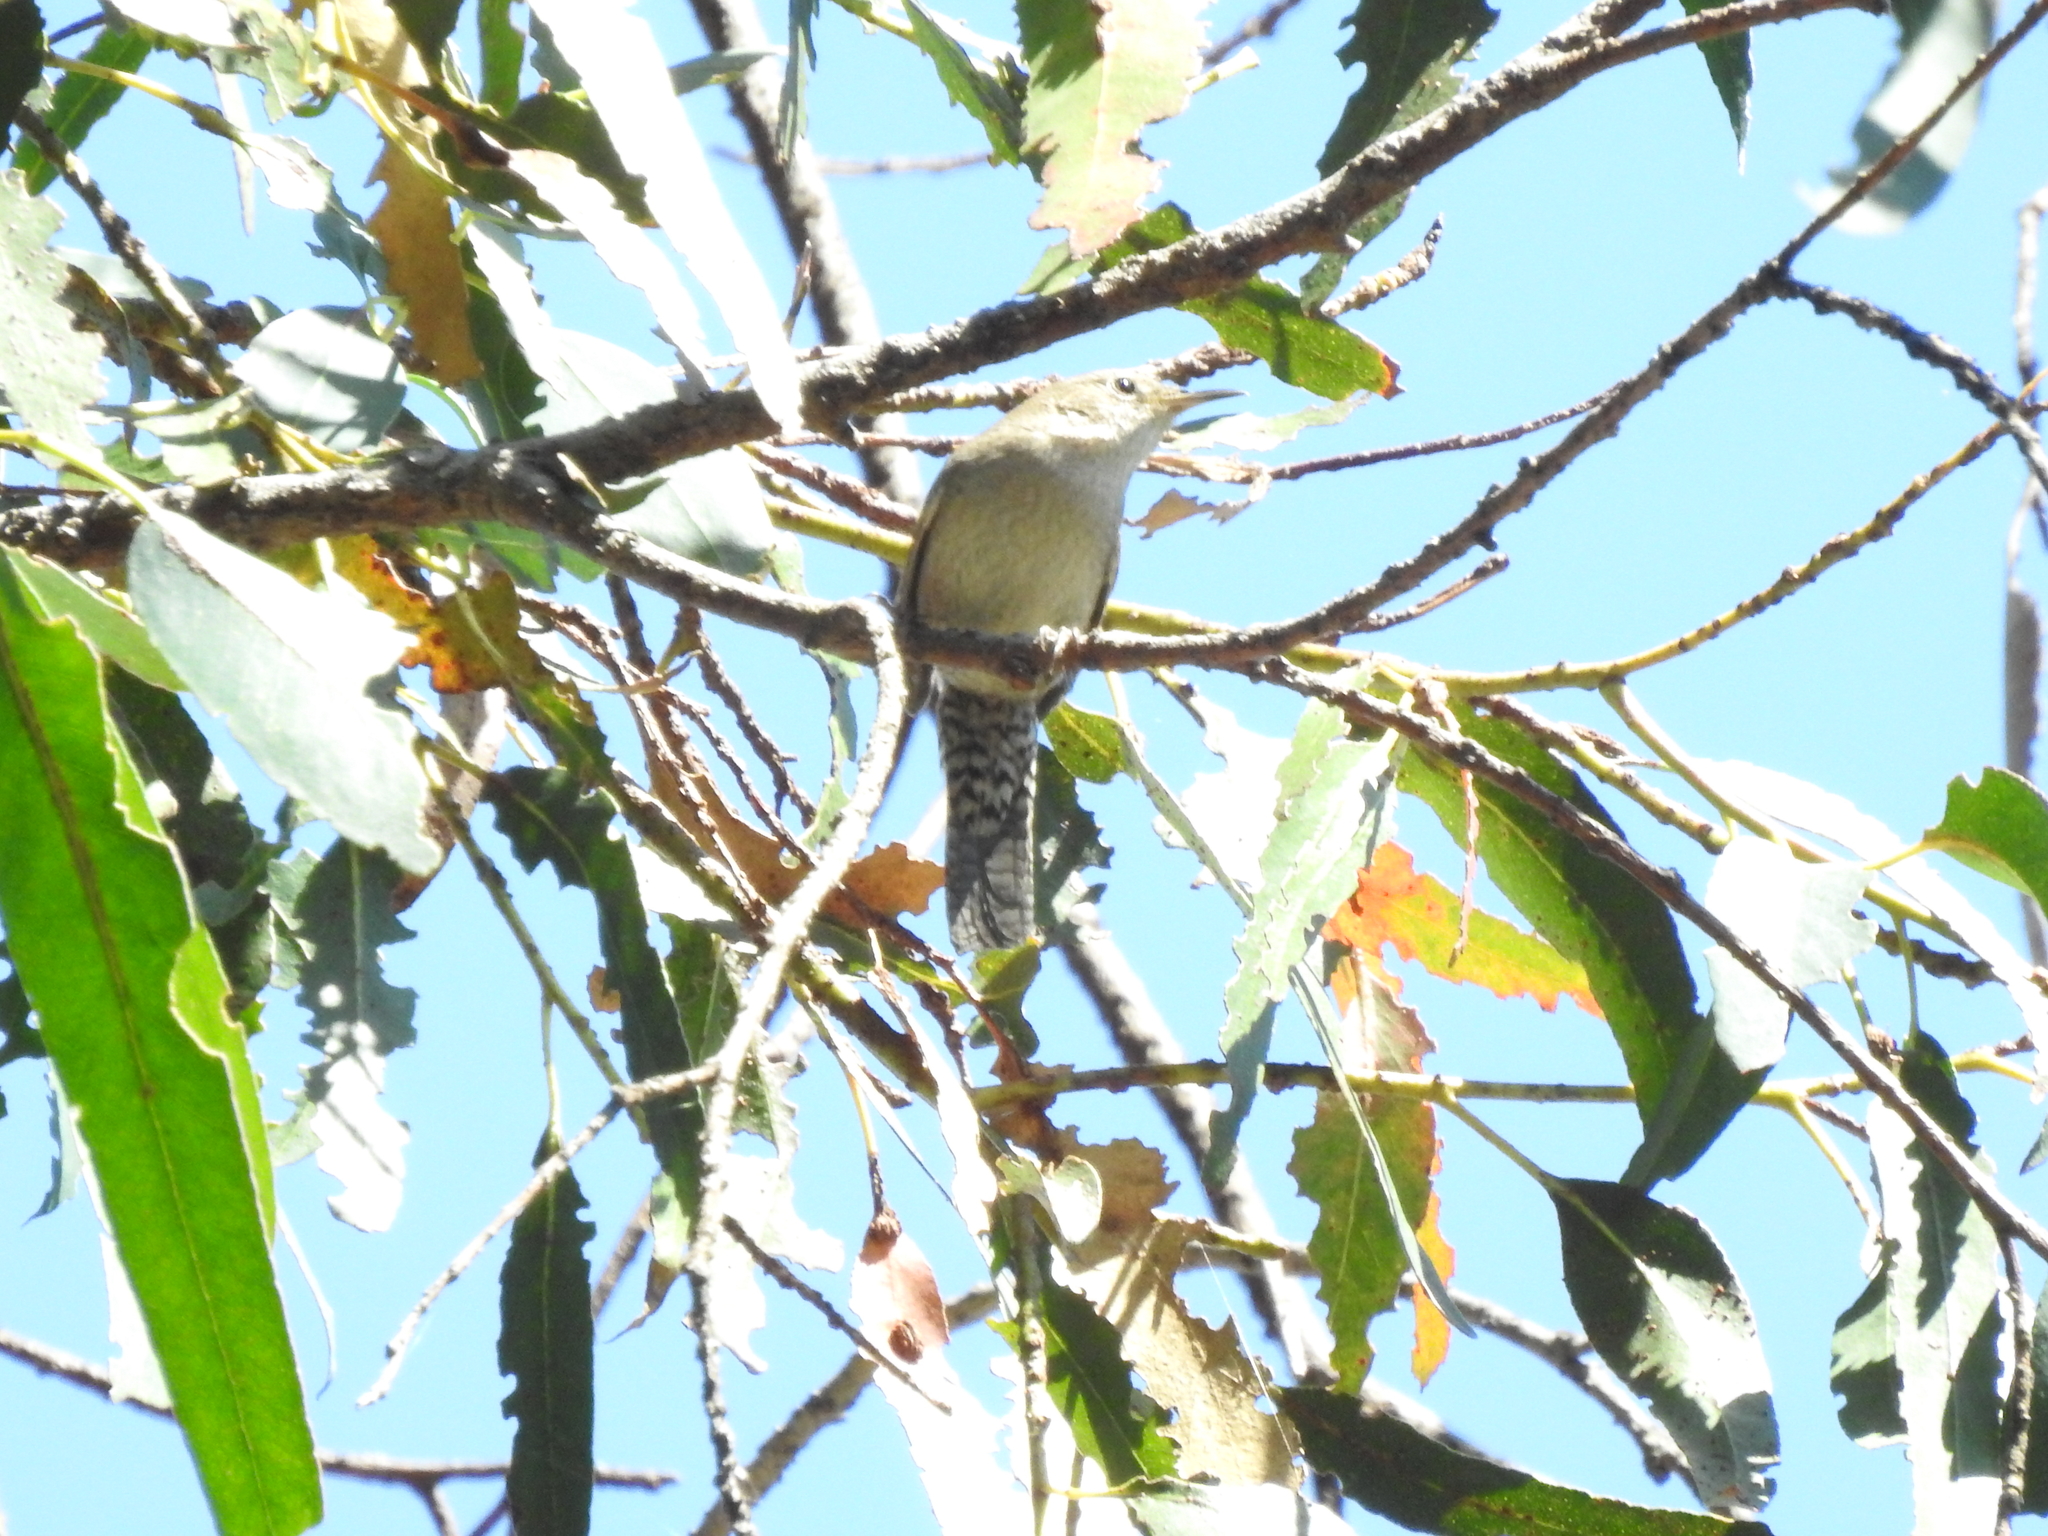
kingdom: Animalia
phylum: Chordata
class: Aves
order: Passeriformes
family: Troglodytidae
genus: Troglodytes
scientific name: Troglodytes aedon
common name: House wren
